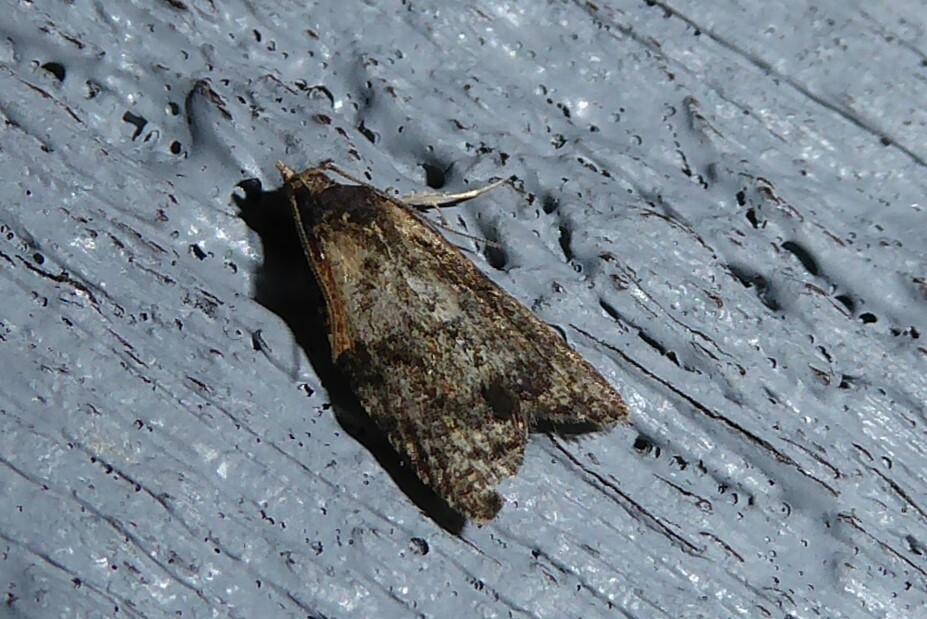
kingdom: Animalia
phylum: Arthropoda
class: Insecta
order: Lepidoptera
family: Tortricidae
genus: Capua
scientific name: Capua intractana
